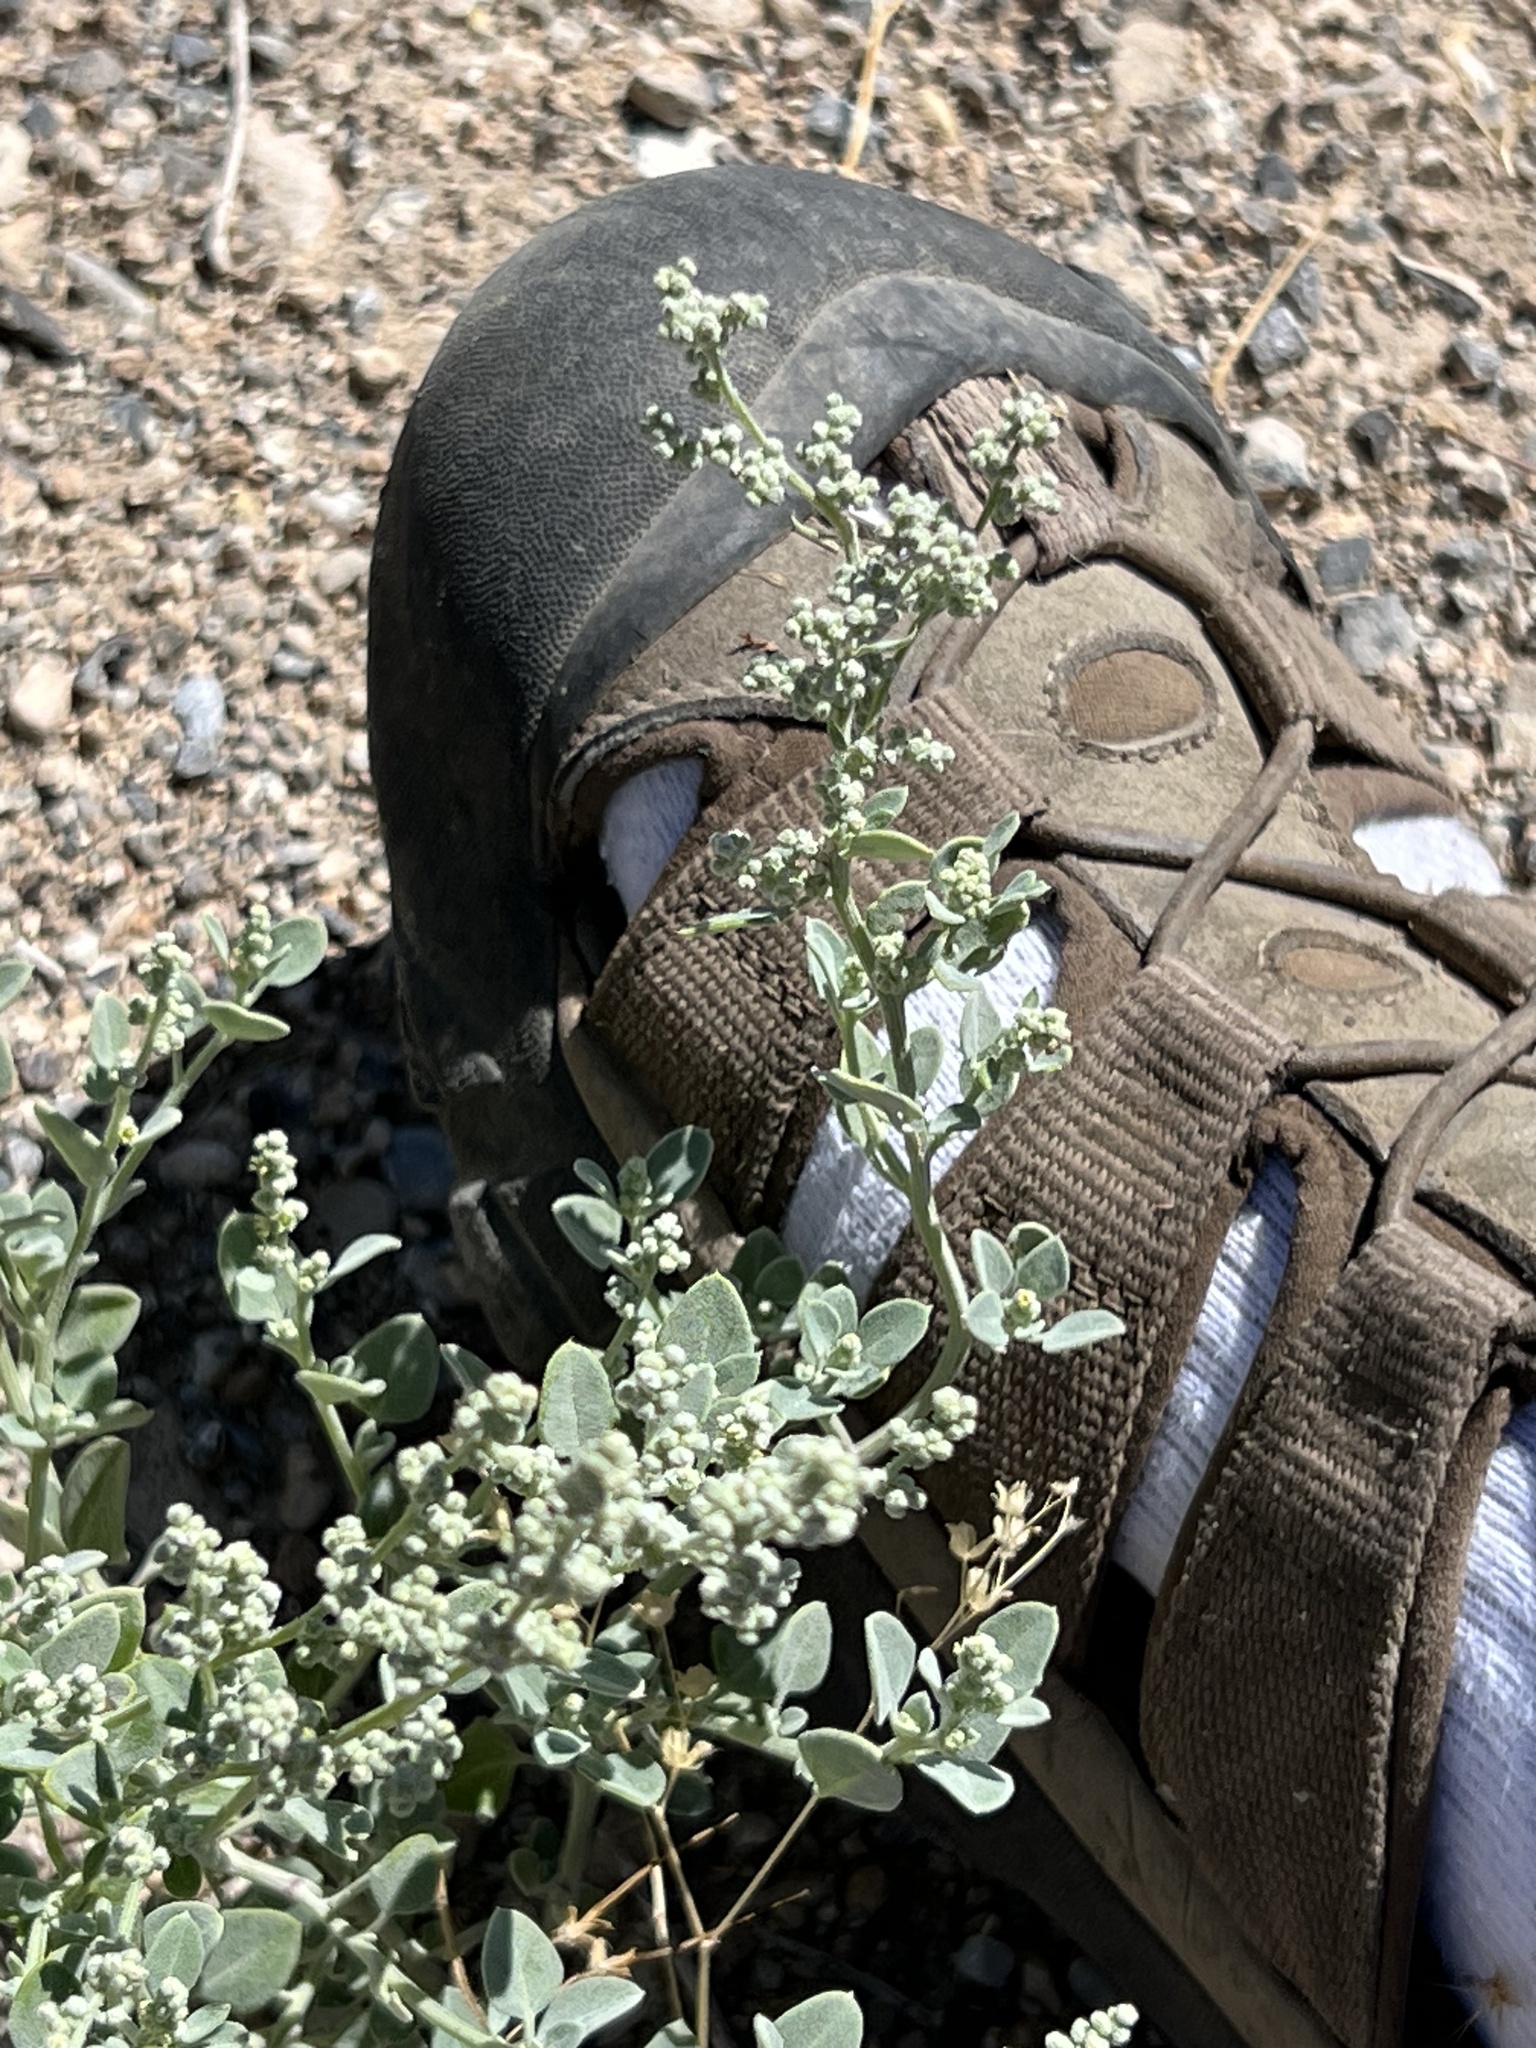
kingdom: Plantae
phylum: Tracheophyta
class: Magnoliopsida
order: Caryophyllales
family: Amaranthaceae
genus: Chenopodium
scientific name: Chenopodium incanum
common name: Hoary goosefoot
